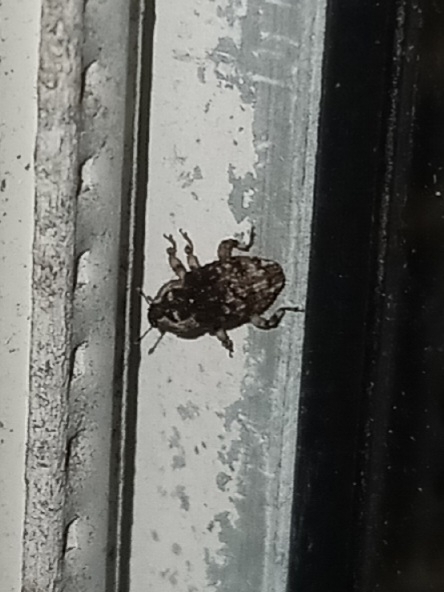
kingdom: Animalia
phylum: Arthropoda
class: Insecta
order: Coleoptera
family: Curculionidae
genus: Cophes
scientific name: Cophes fallax
